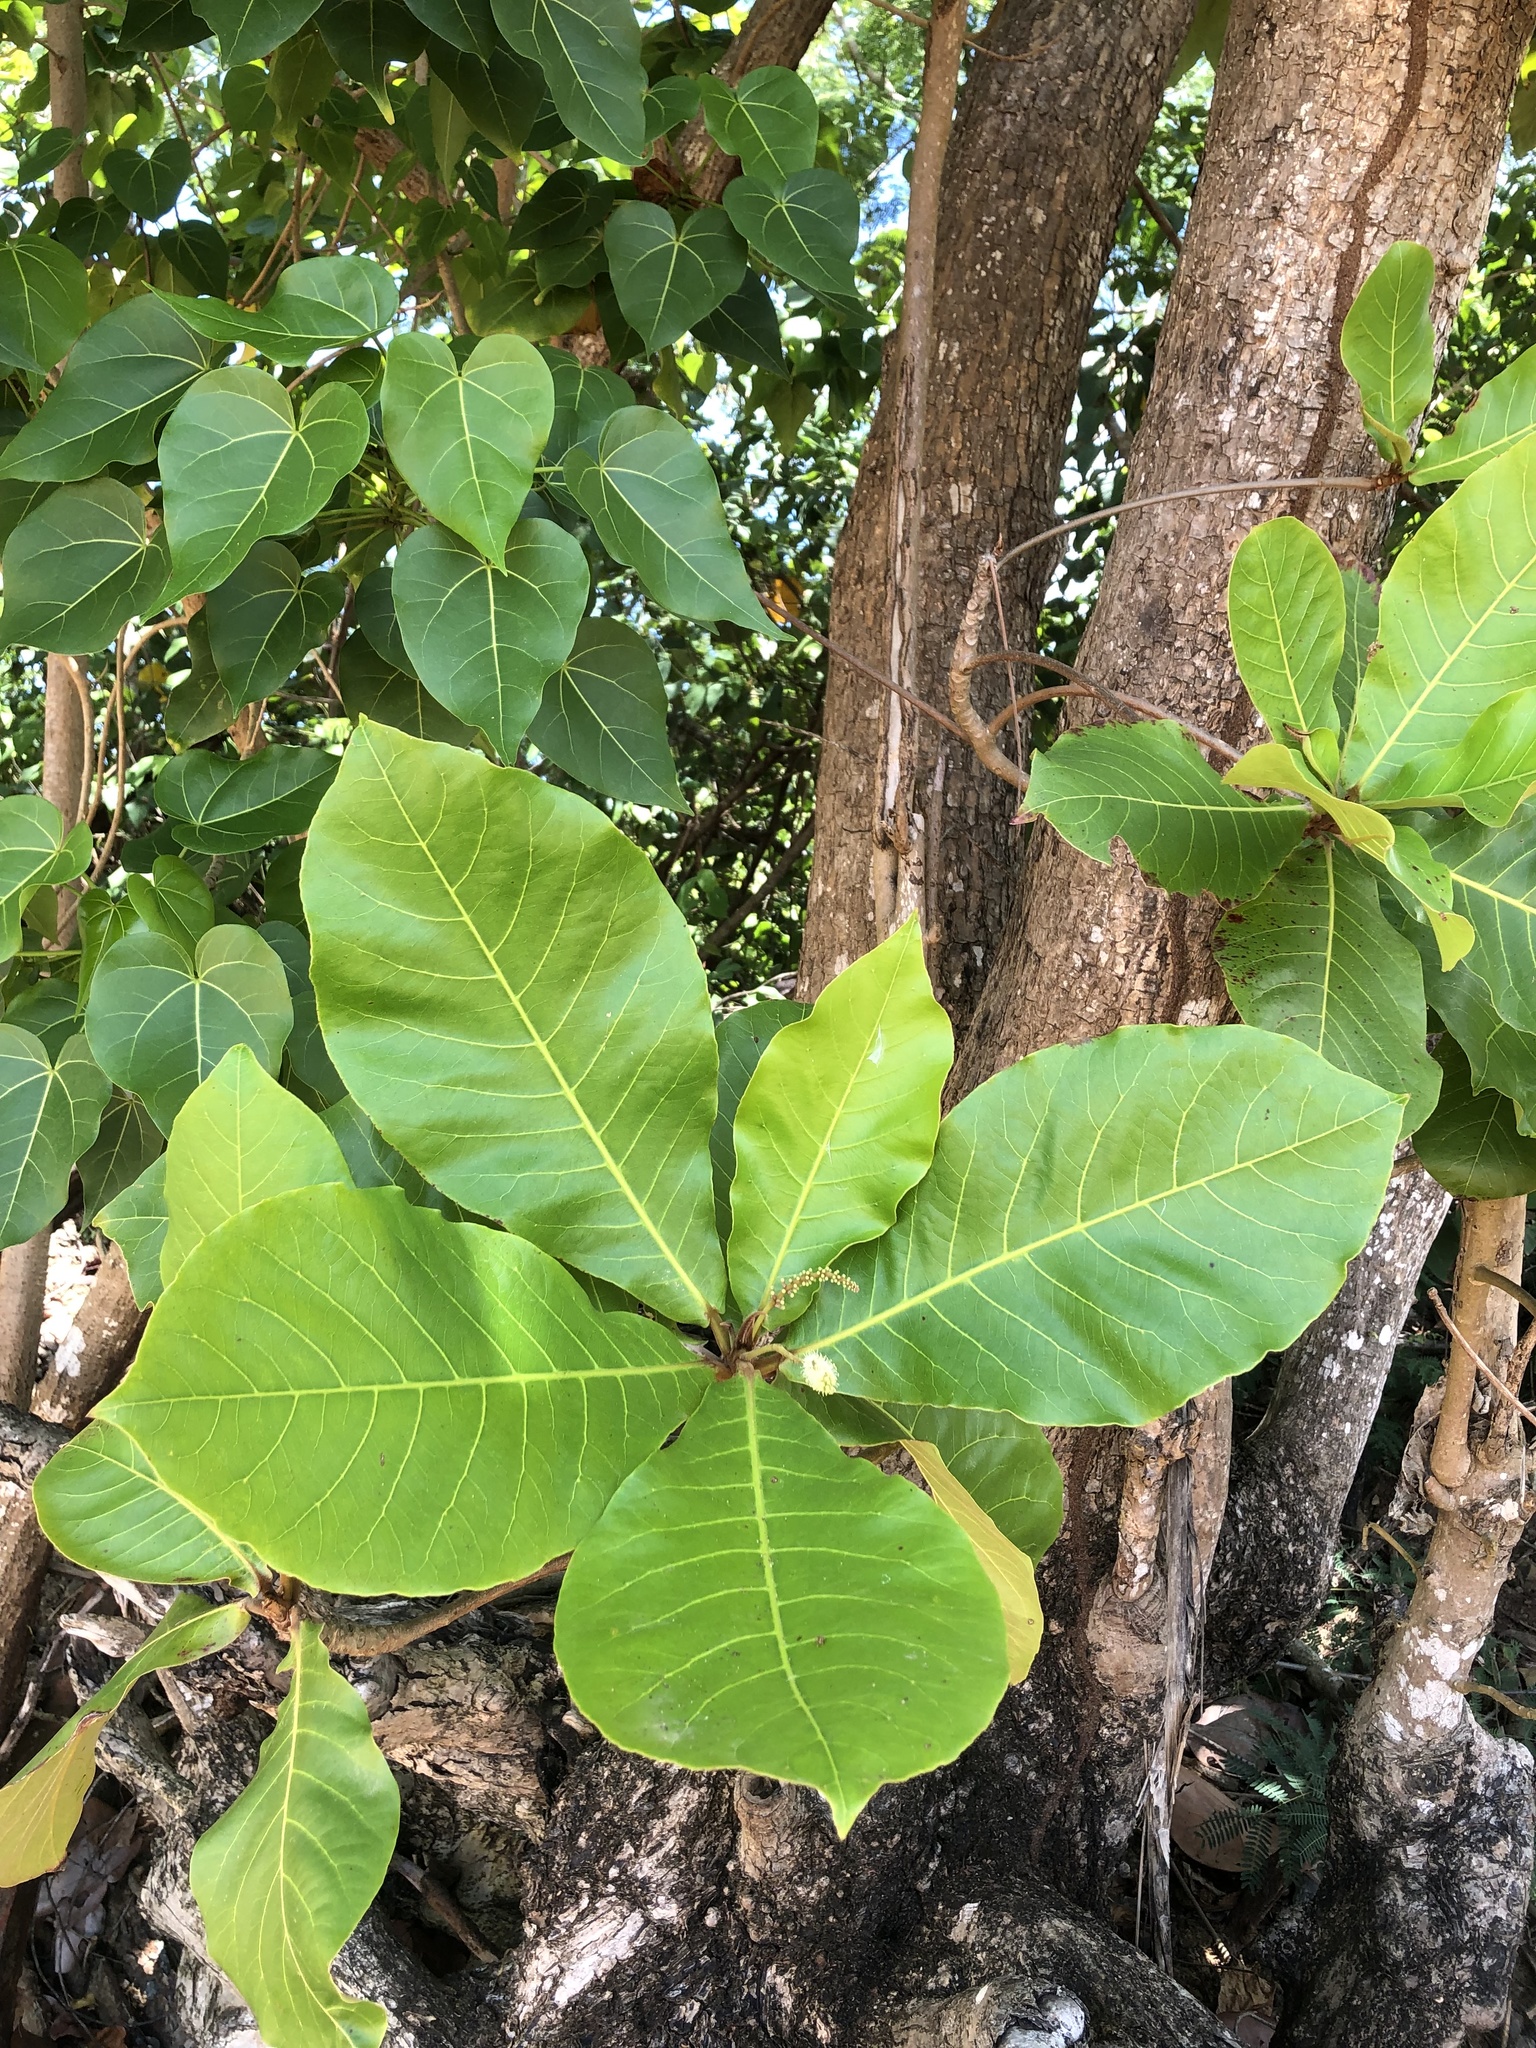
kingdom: Plantae
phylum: Tracheophyta
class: Magnoliopsida
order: Myrtales
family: Combretaceae
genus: Terminalia
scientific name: Terminalia catappa
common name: Tropical almond
